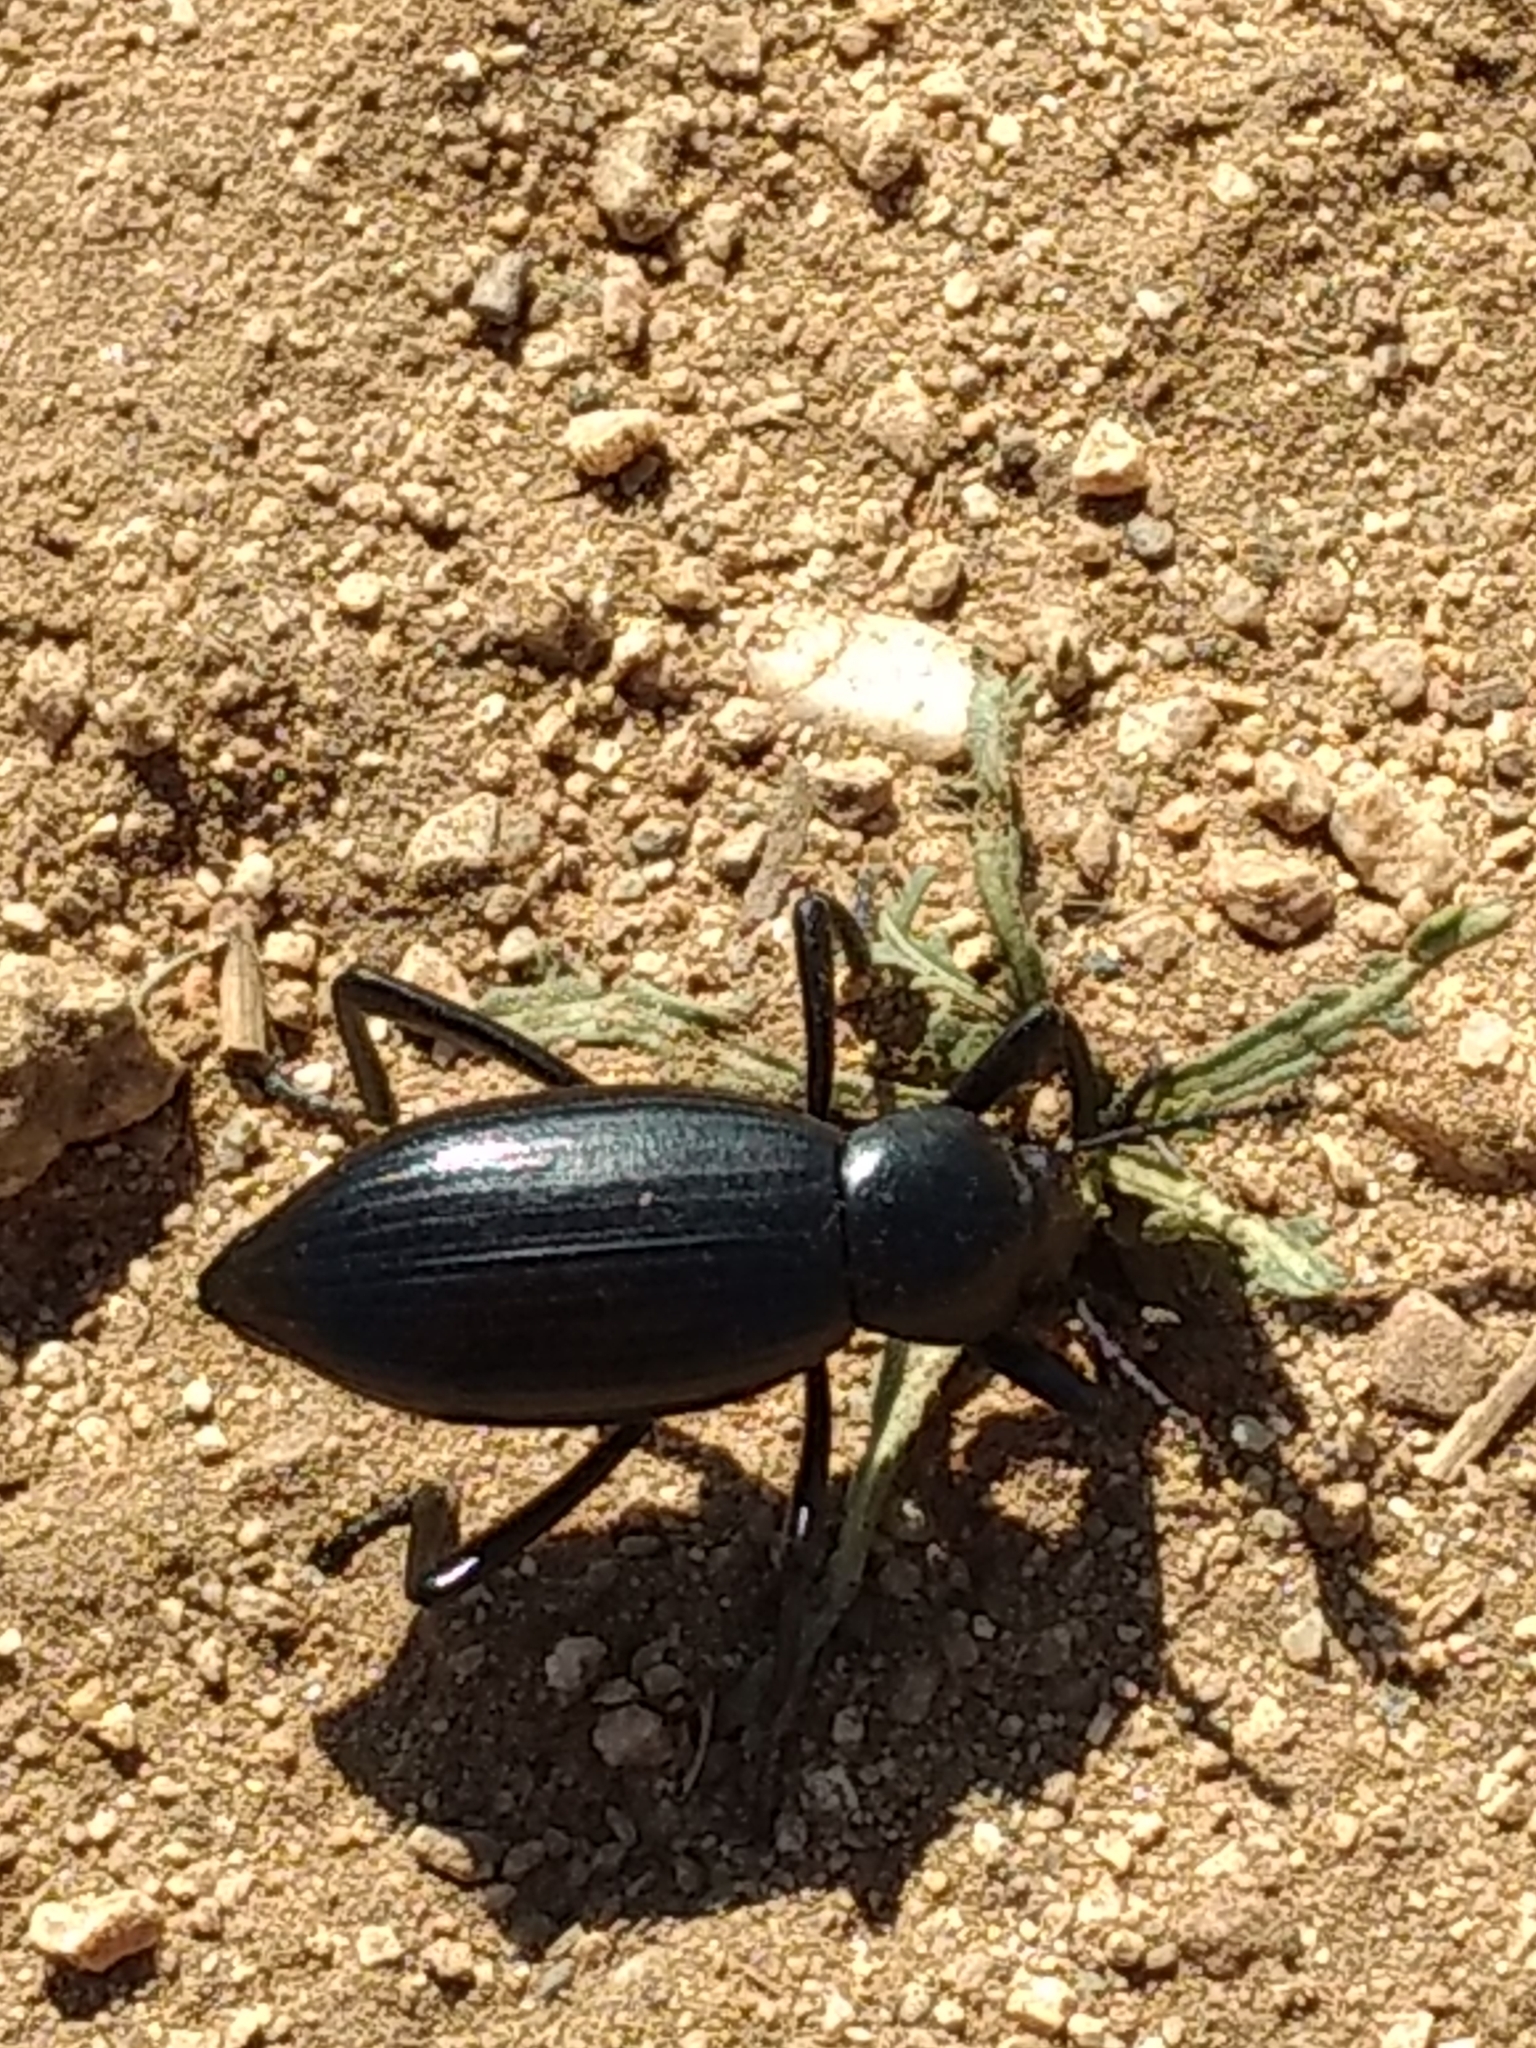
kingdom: Animalia
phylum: Arthropoda
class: Insecta
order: Coleoptera
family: Tenebrionidae
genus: Eleodes
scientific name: Eleodes gracilis
